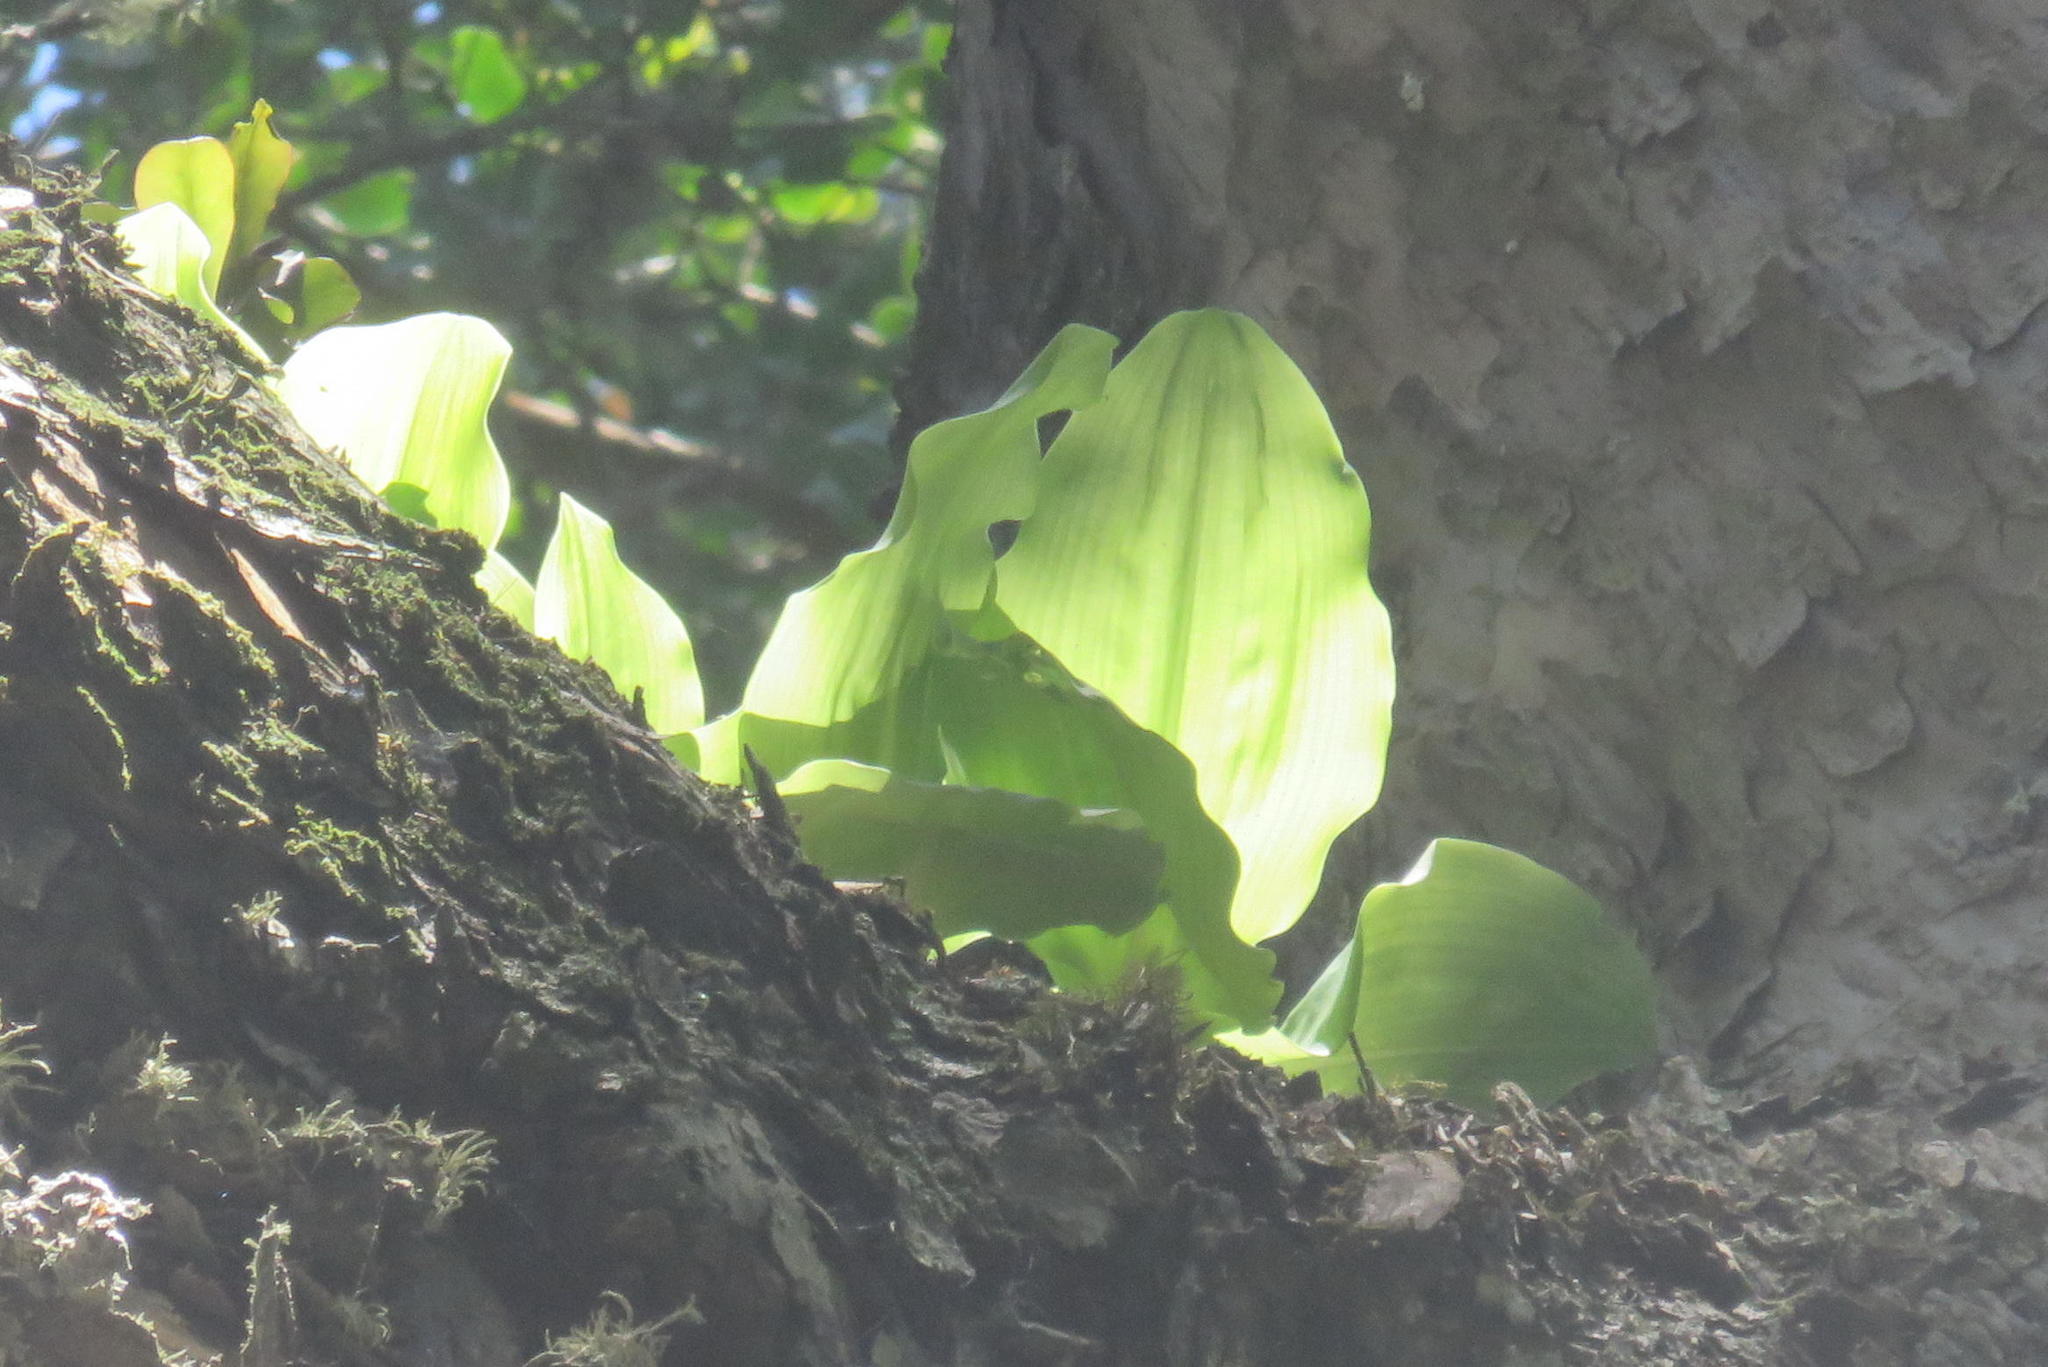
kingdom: Plantae
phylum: Tracheophyta
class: Liliopsida
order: Asparagales
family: Amaryllidaceae
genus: Scadoxus
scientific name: Scadoxus puniceus
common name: Royal-paintbrush
